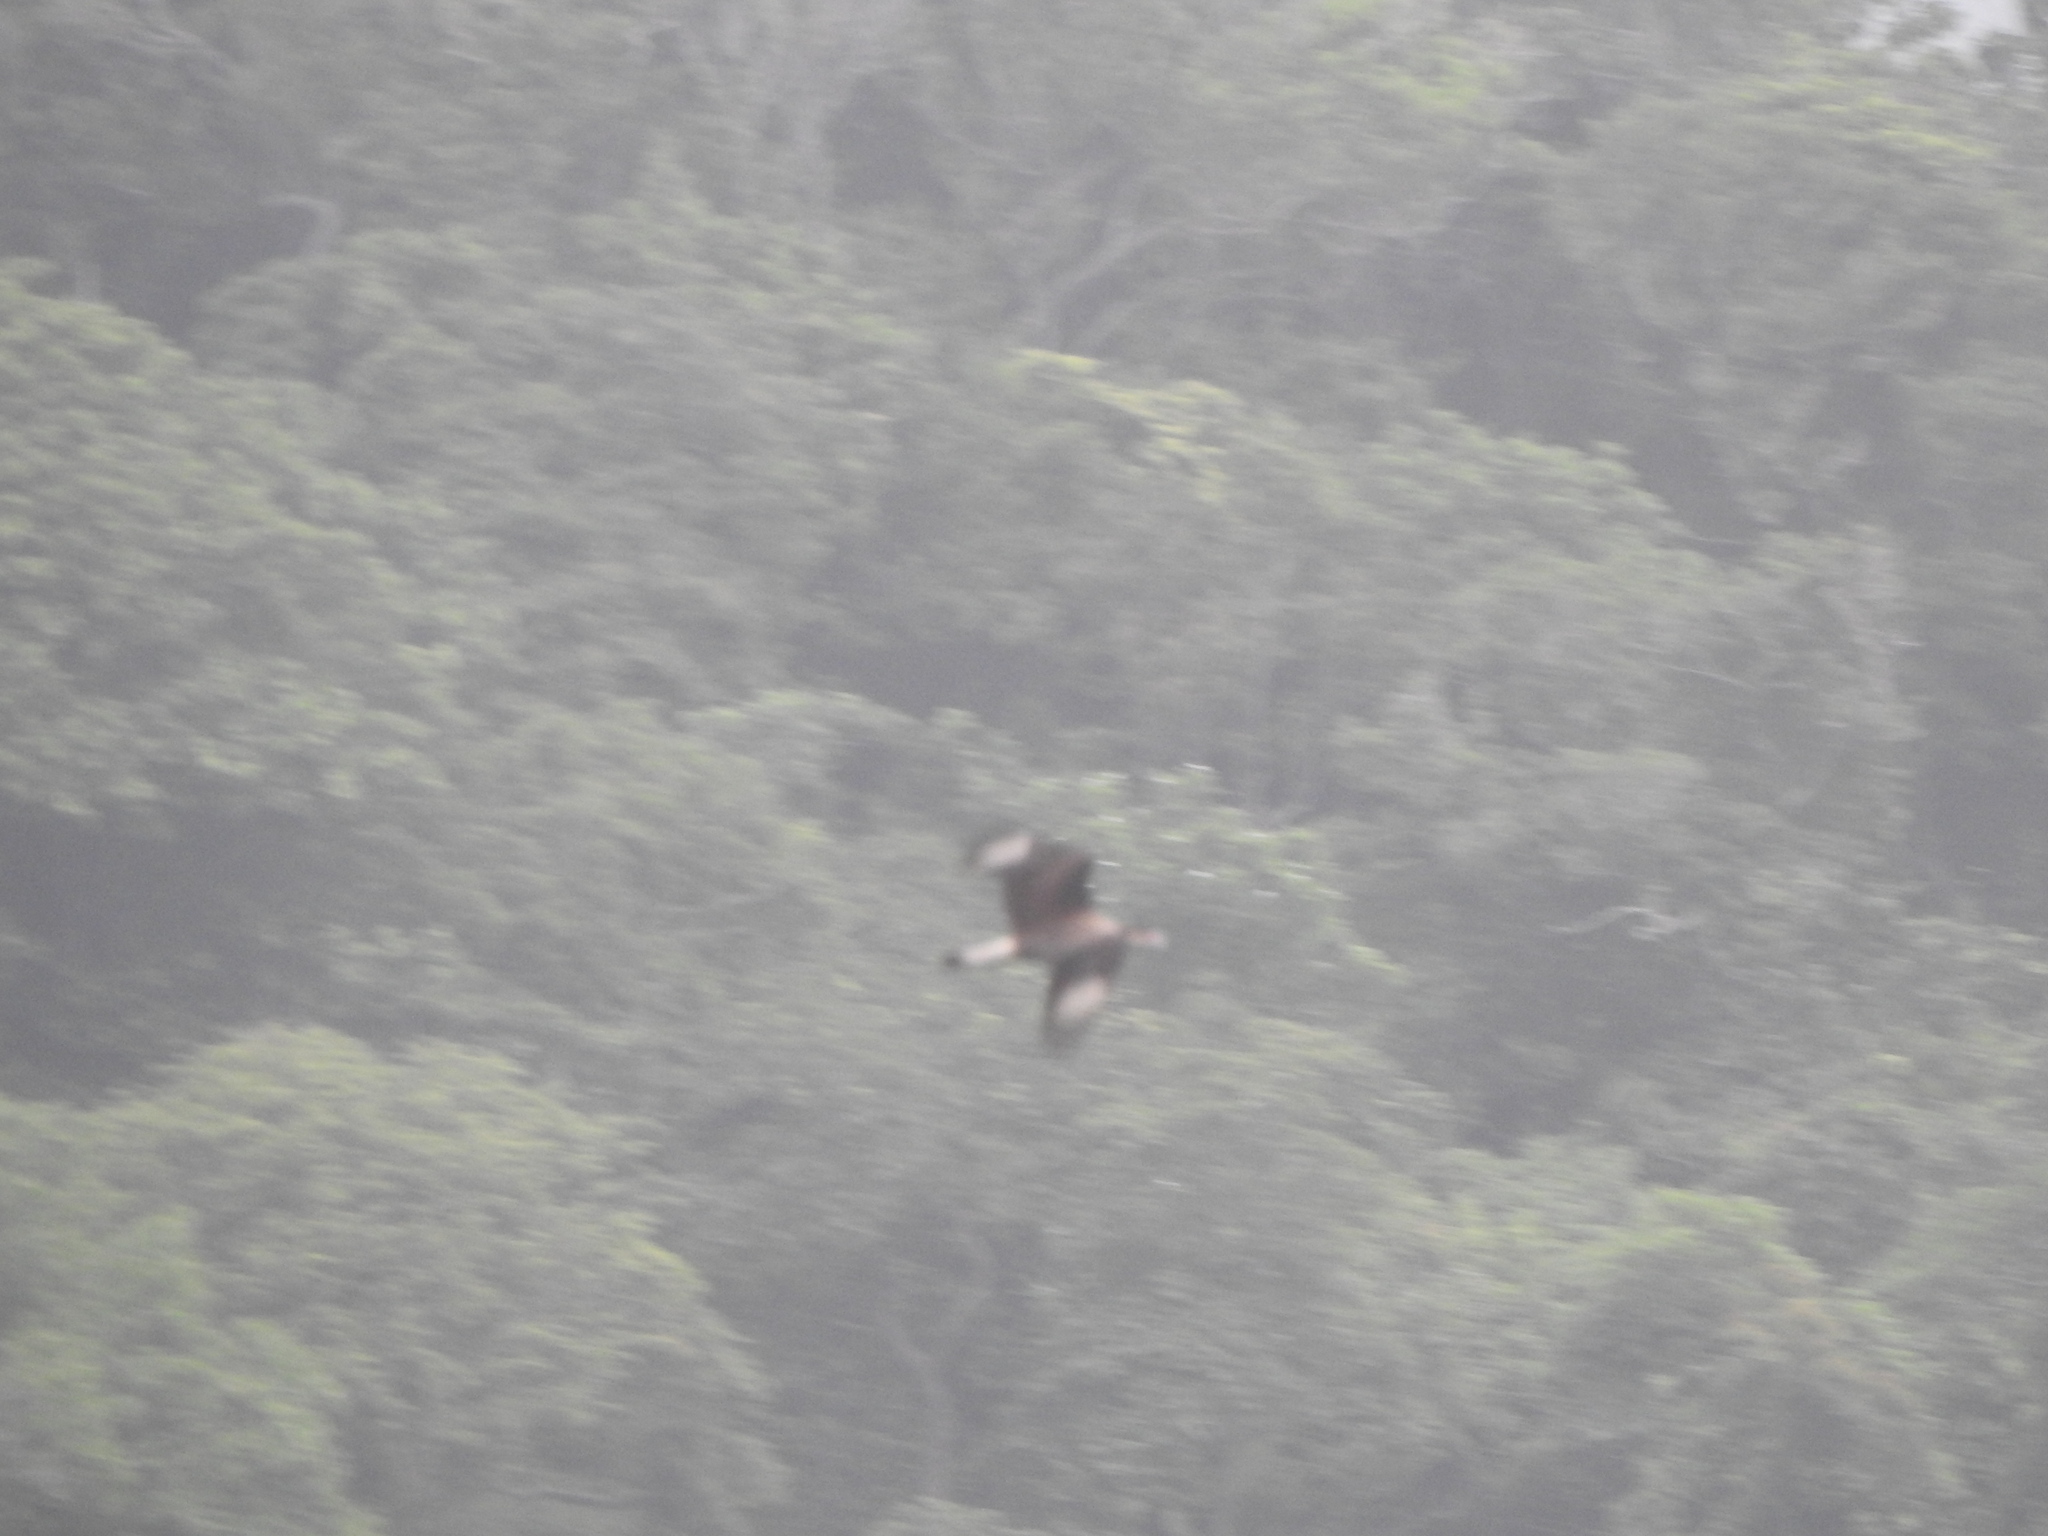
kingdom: Animalia
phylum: Chordata
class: Aves
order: Falconiformes
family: Falconidae
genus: Caracara
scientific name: Caracara plancus
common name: Southern caracara
